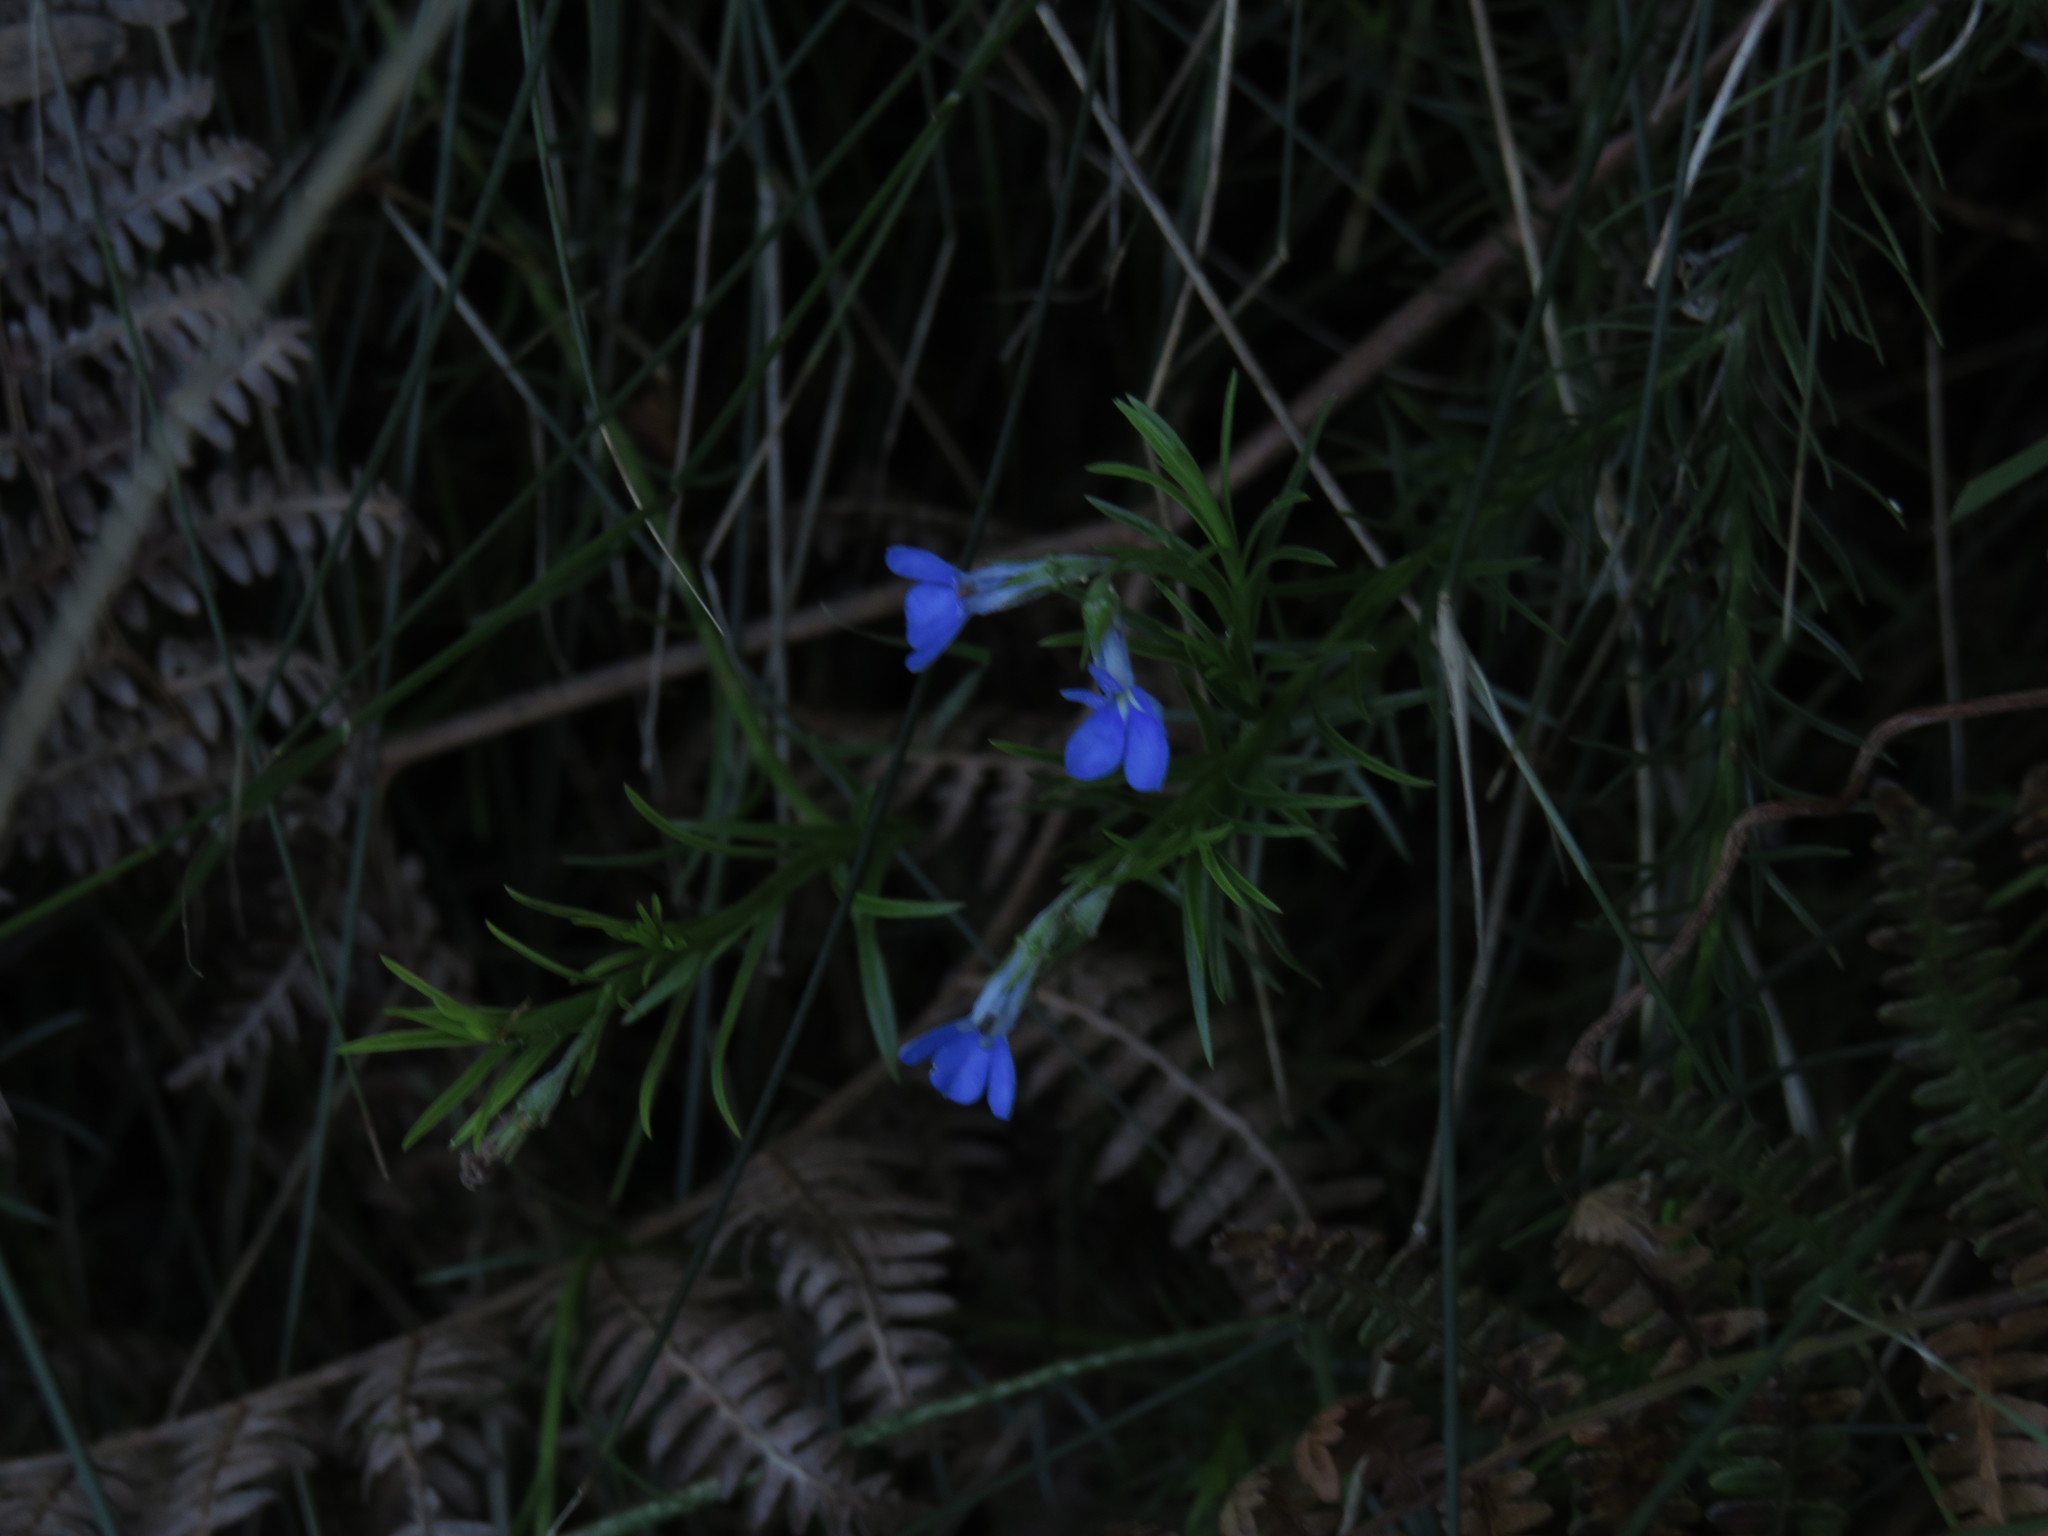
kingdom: Plantae
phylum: Tracheophyta
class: Magnoliopsida
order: Asterales
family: Campanulaceae
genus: Lobelia
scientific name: Lobelia pinifolia
